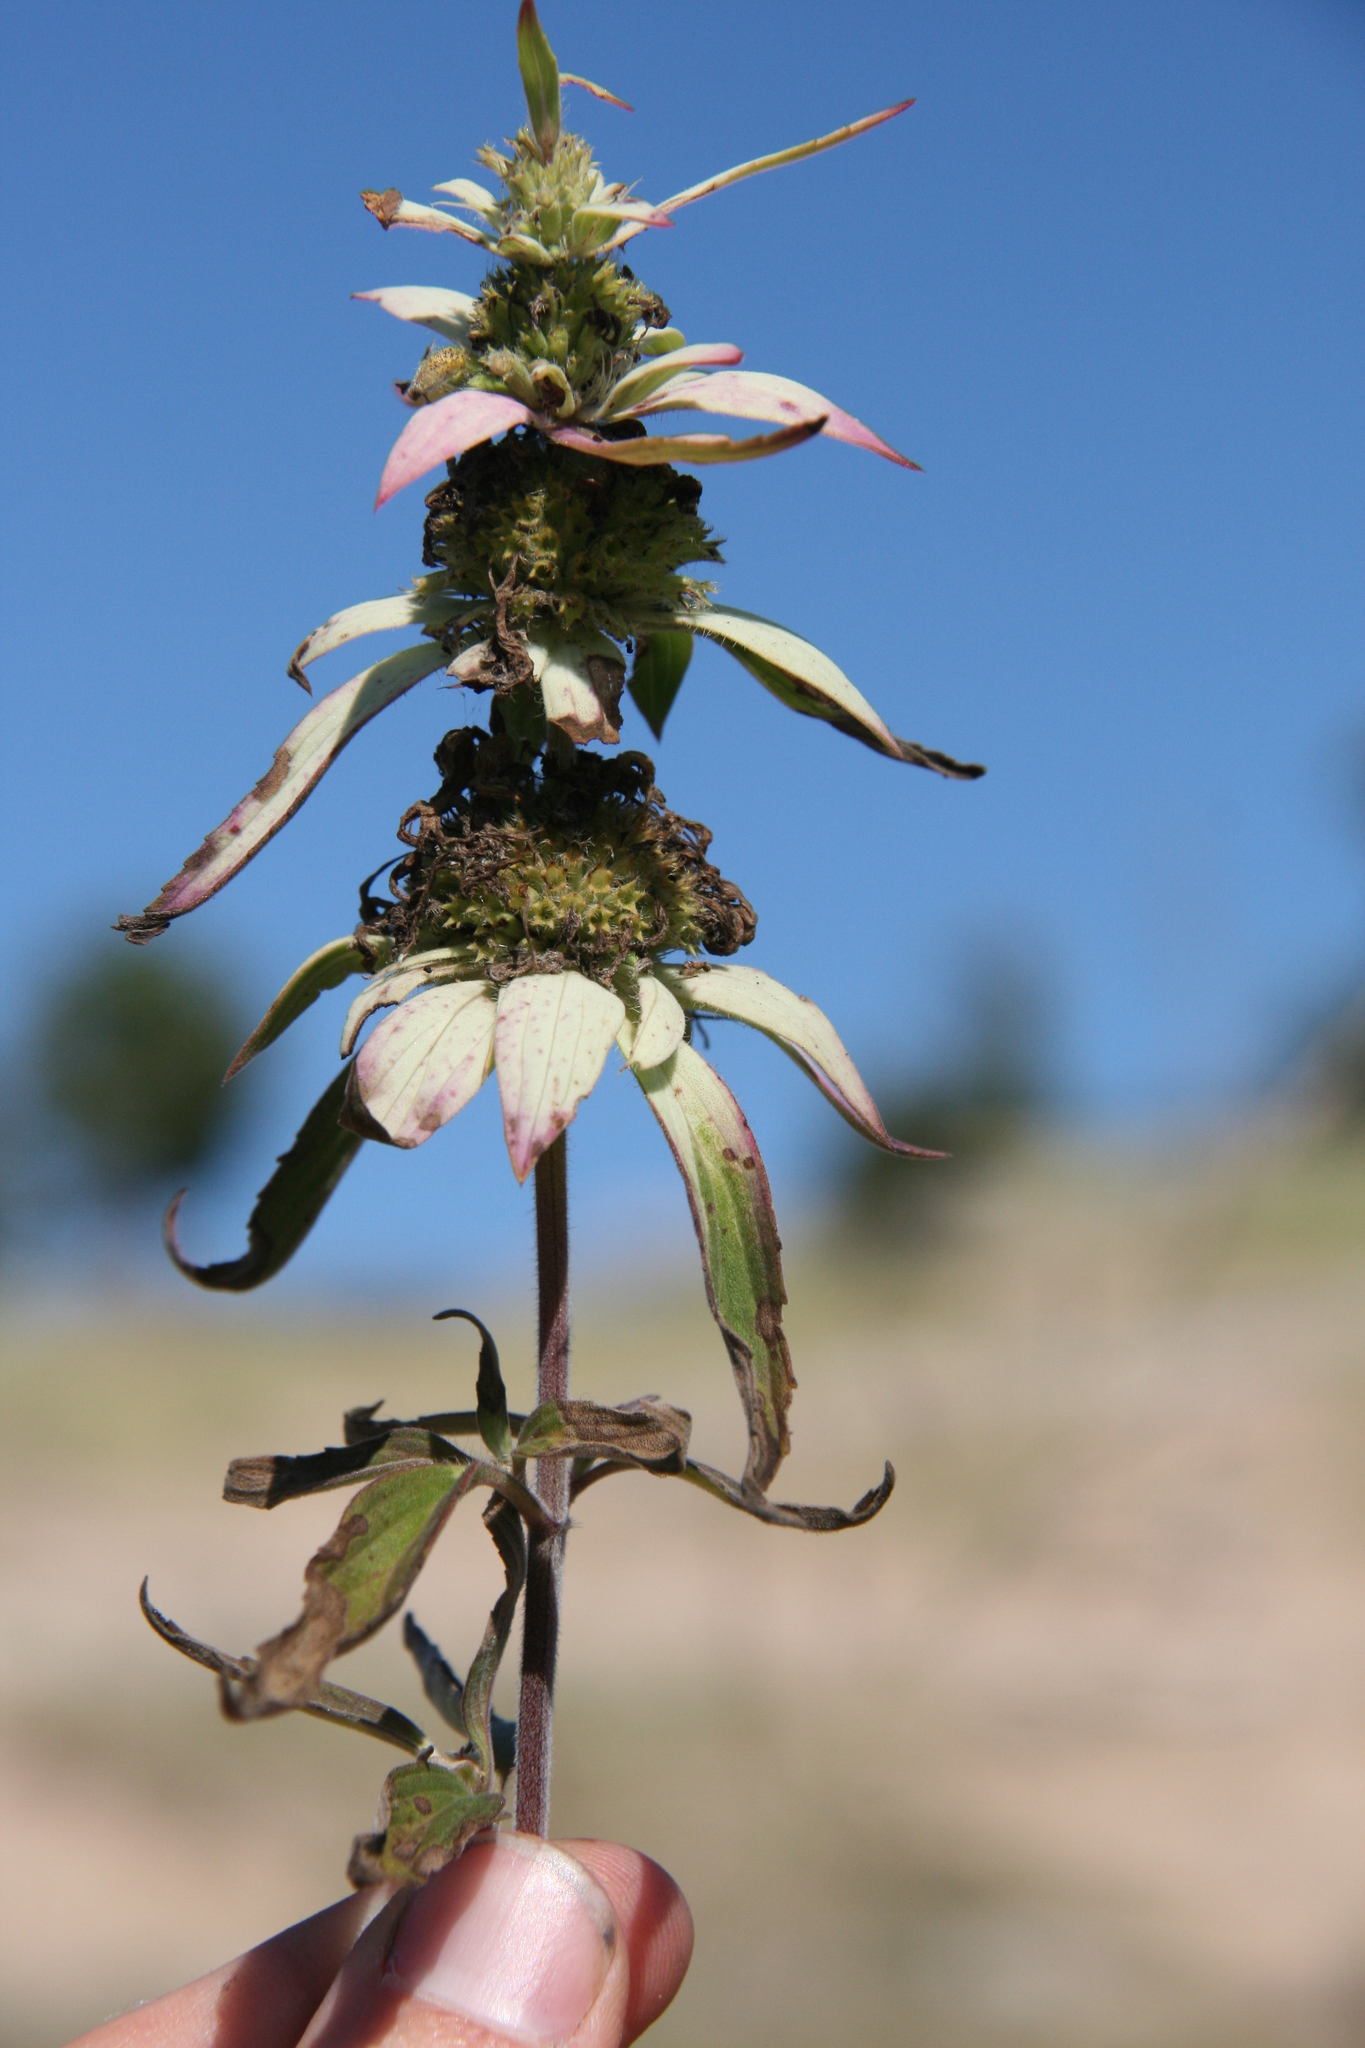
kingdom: Plantae
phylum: Tracheophyta
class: Magnoliopsida
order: Lamiales
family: Lamiaceae
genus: Monarda
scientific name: Monarda punctata
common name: Dotted monarda
